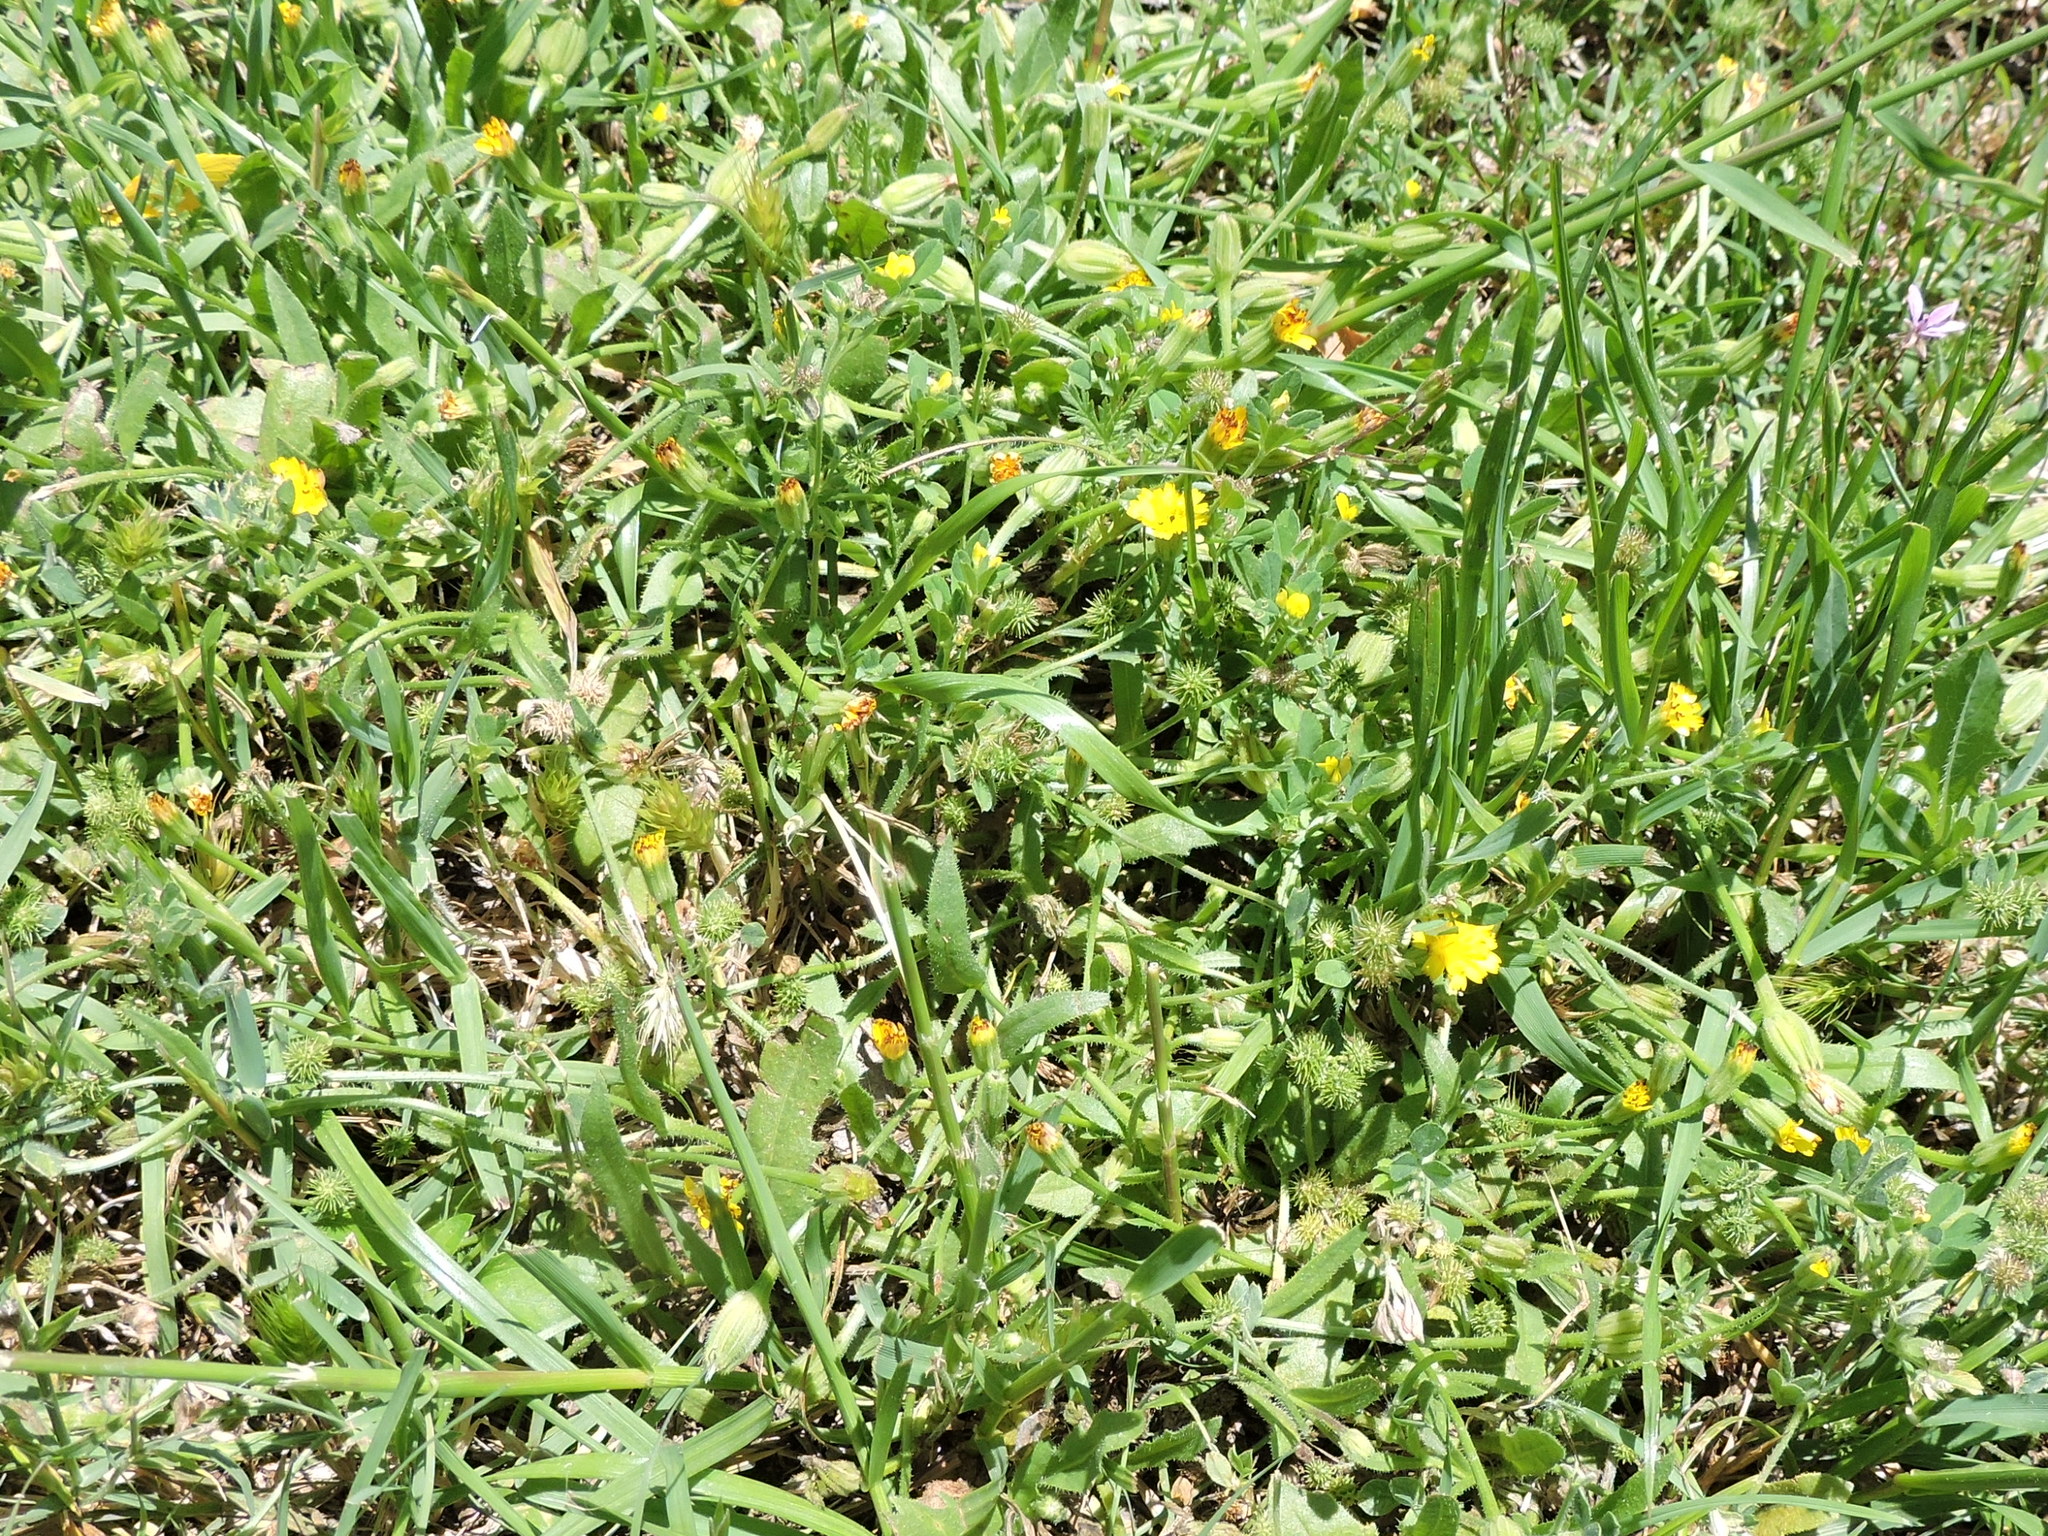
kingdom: Plantae
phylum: Tracheophyta
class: Magnoliopsida
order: Asterales
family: Asteraceae
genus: Hedypnois
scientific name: Hedypnois rhagadioloides
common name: Cretan weed
